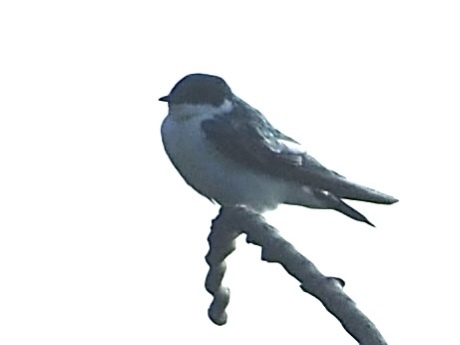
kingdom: Animalia
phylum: Chordata
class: Aves
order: Passeriformes
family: Hirundinidae
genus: Tachycineta
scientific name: Tachycineta albiventer
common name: White-winged swallow
